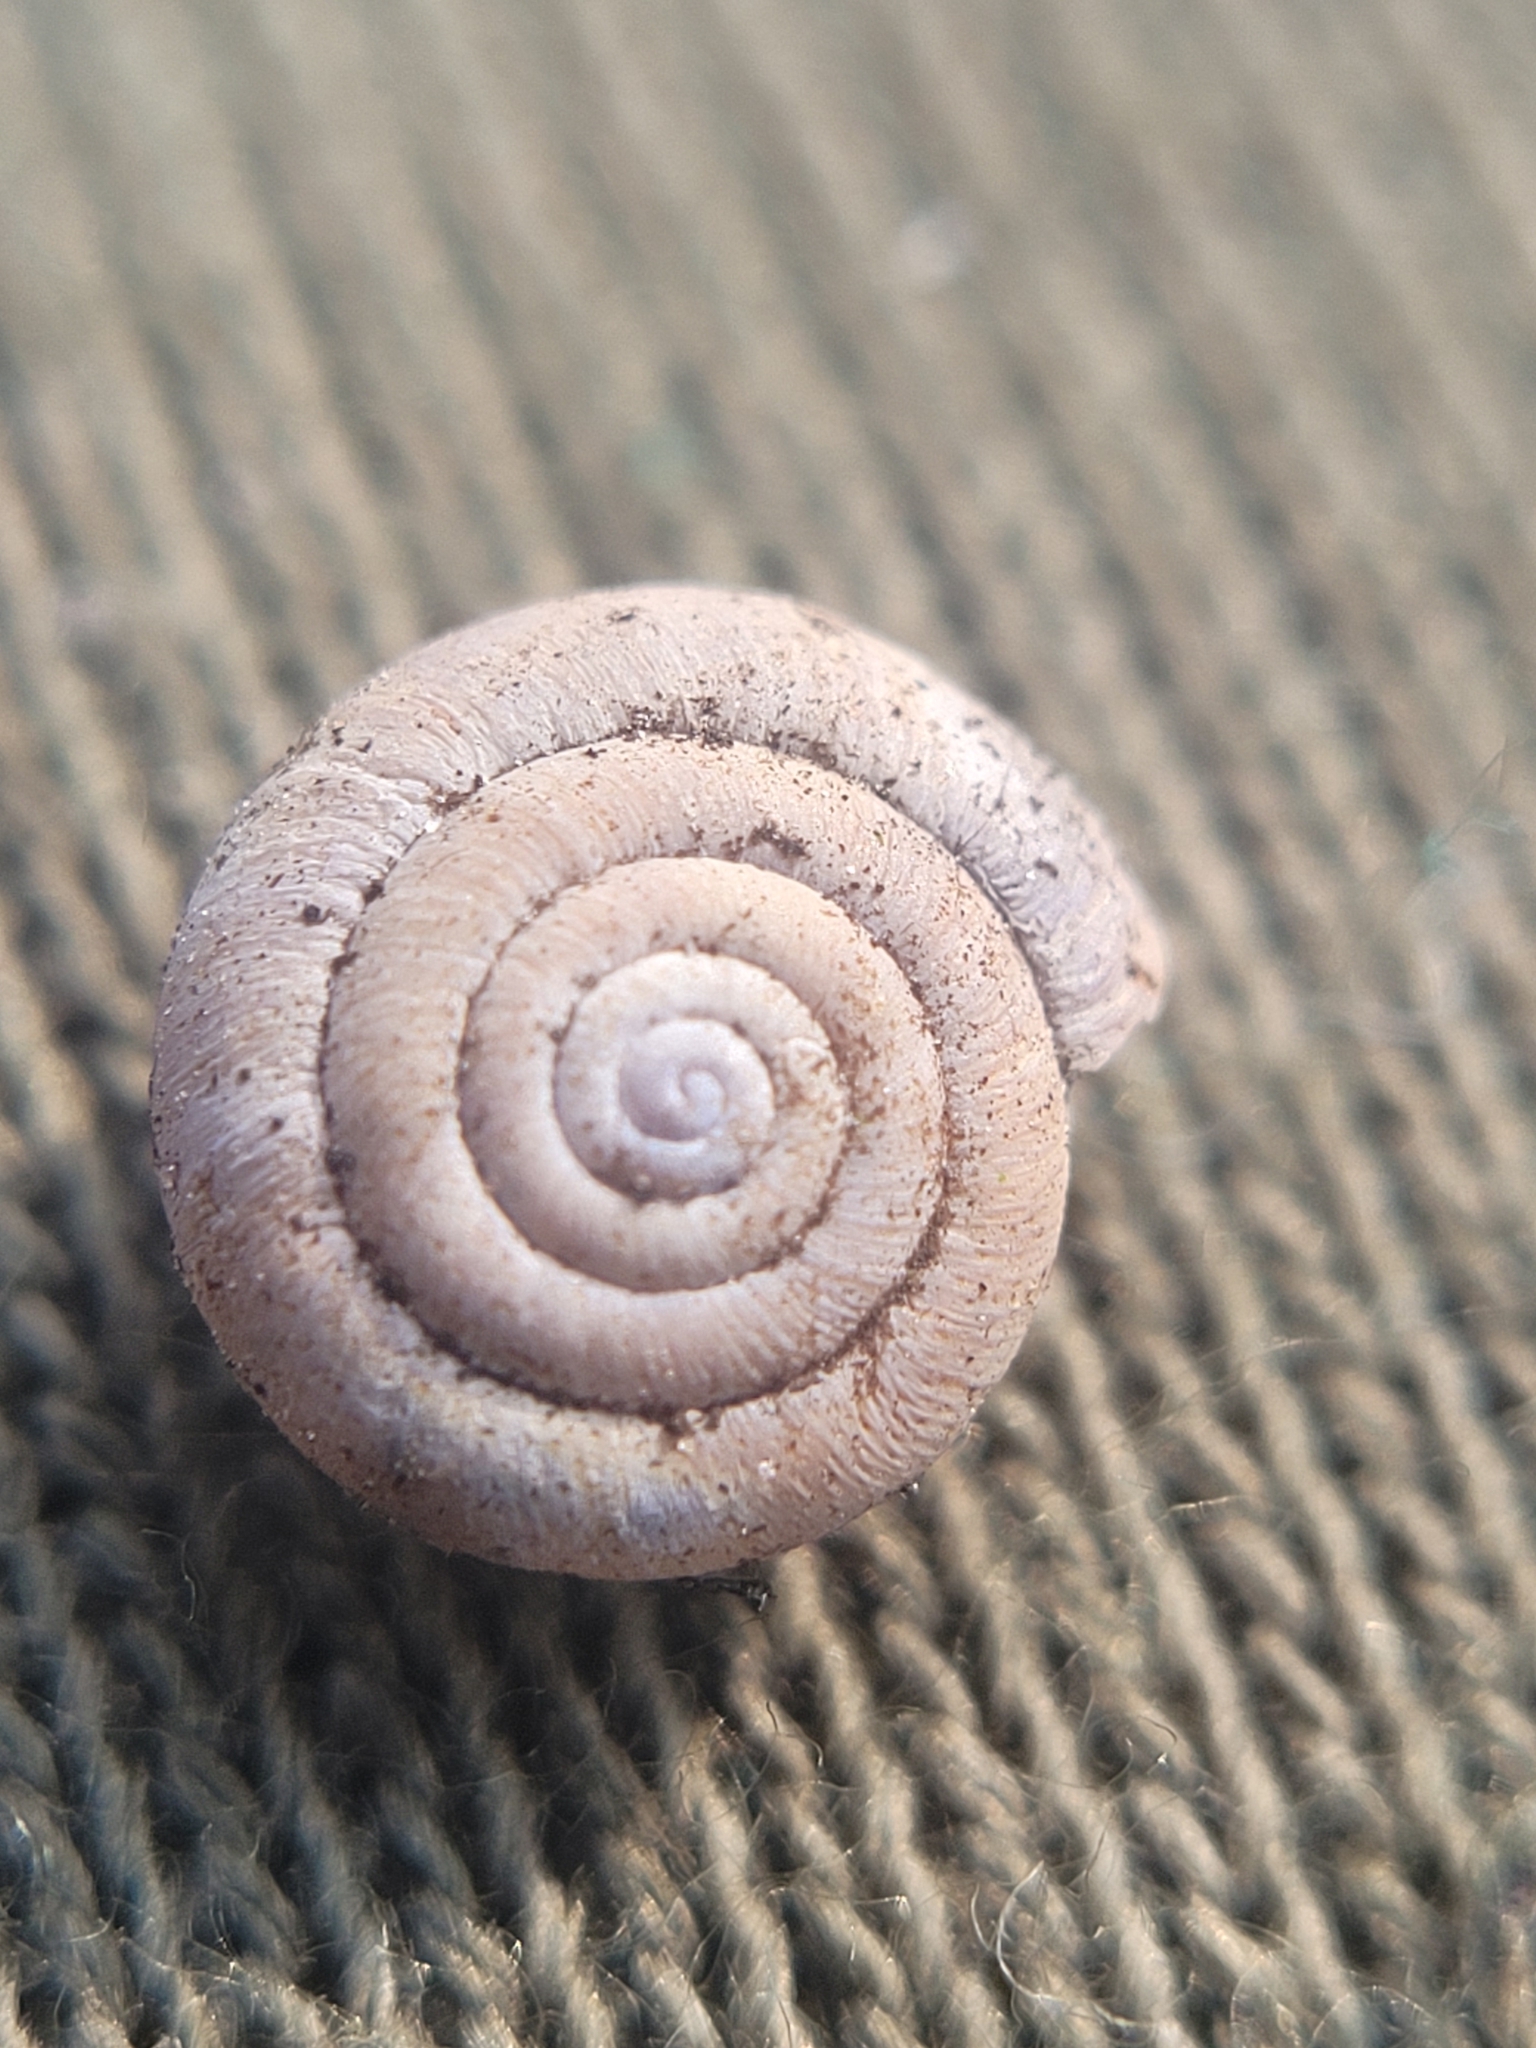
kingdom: Animalia
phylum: Mollusca
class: Gastropoda
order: Stylommatophora
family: Hygromiidae
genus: Trochulus
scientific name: Trochulus hispidus
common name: Hairy snail
